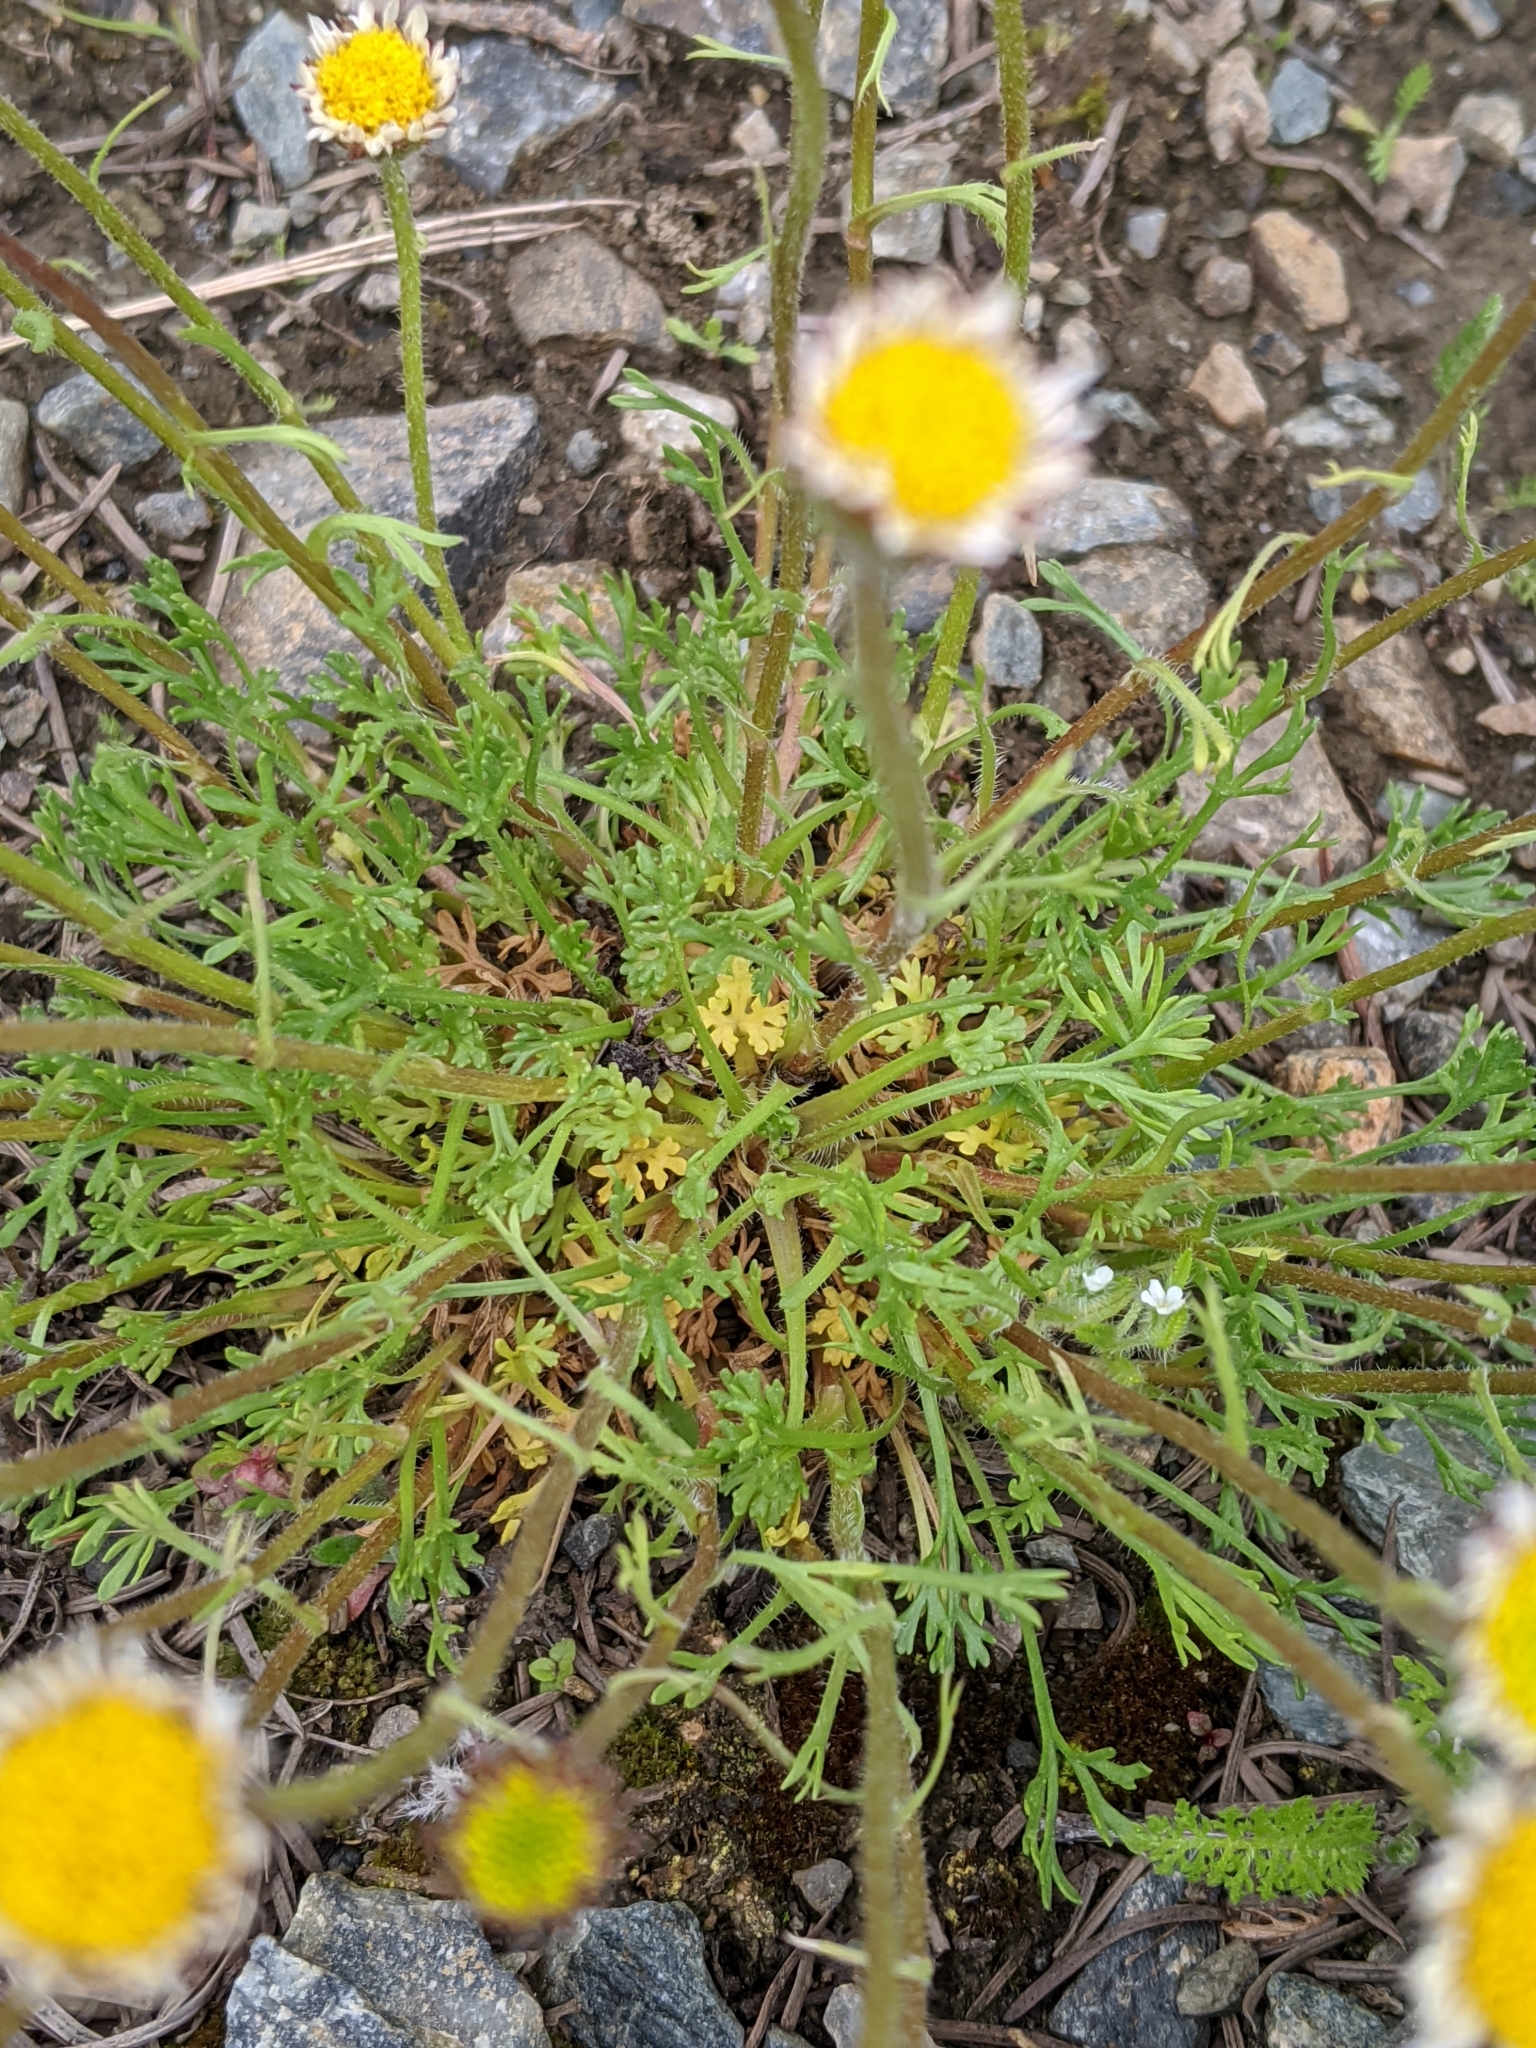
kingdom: Plantae
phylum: Tracheophyta
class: Magnoliopsida
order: Asterales
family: Asteraceae
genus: Erigeron
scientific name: Erigeron compositus
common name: Dwarf mountain fleabane
